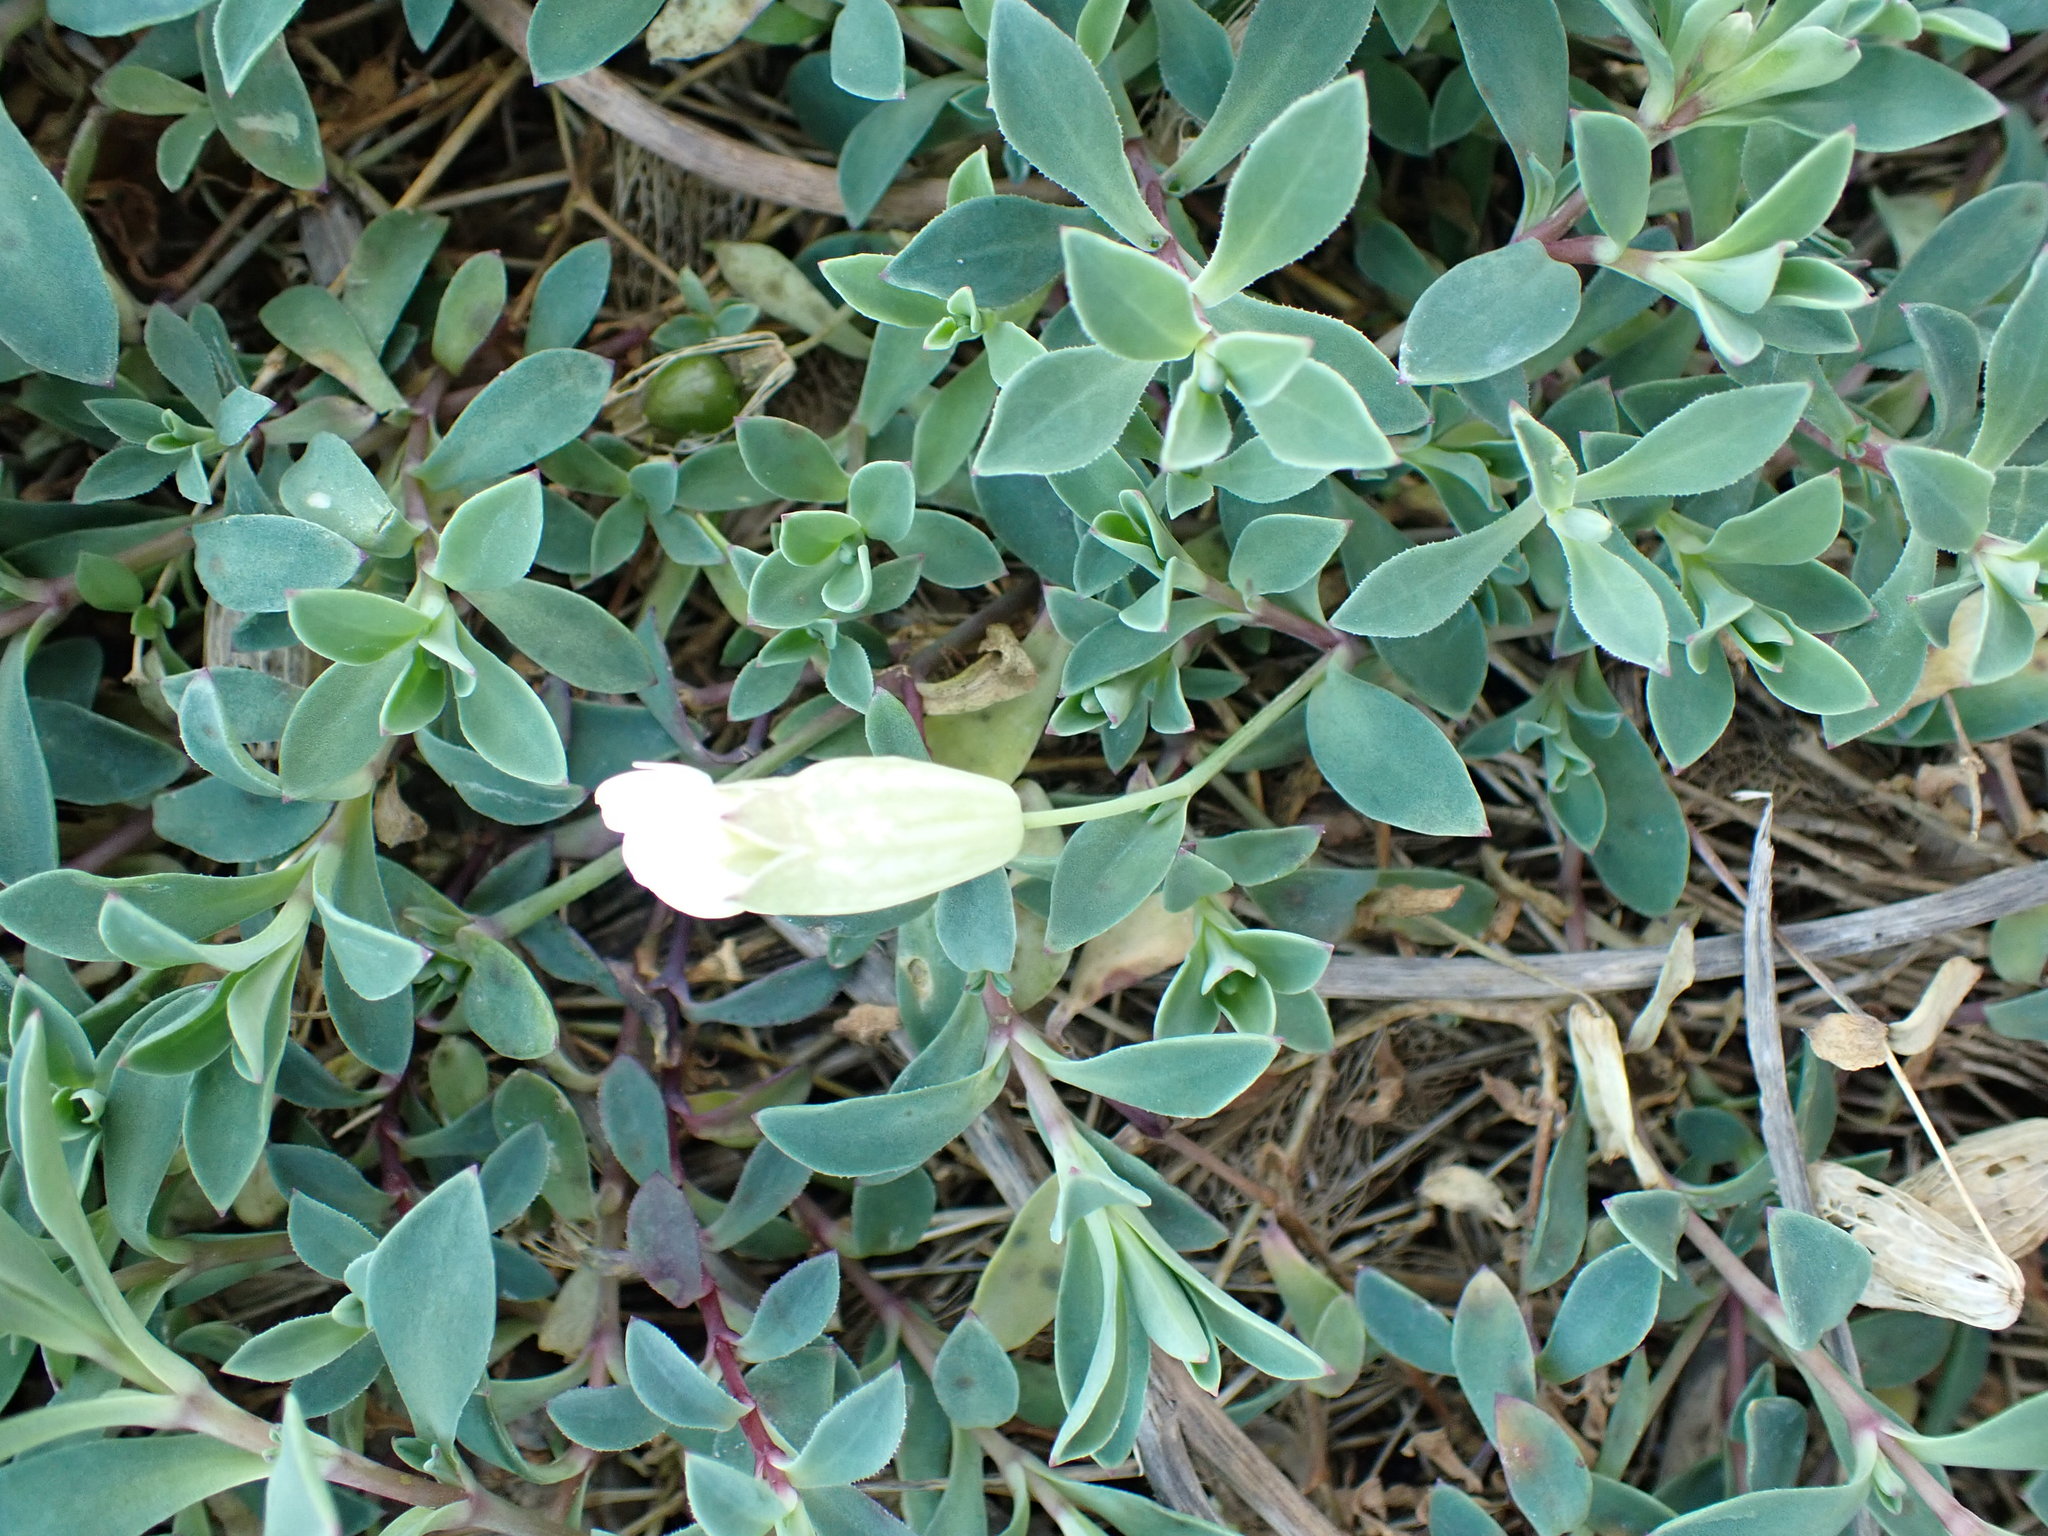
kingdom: Plantae
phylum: Tracheophyta
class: Magnoliopsida
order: Caryophyllales
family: Caryophyllaceae
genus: Silene
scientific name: Silene uniflora
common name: Sea campion
